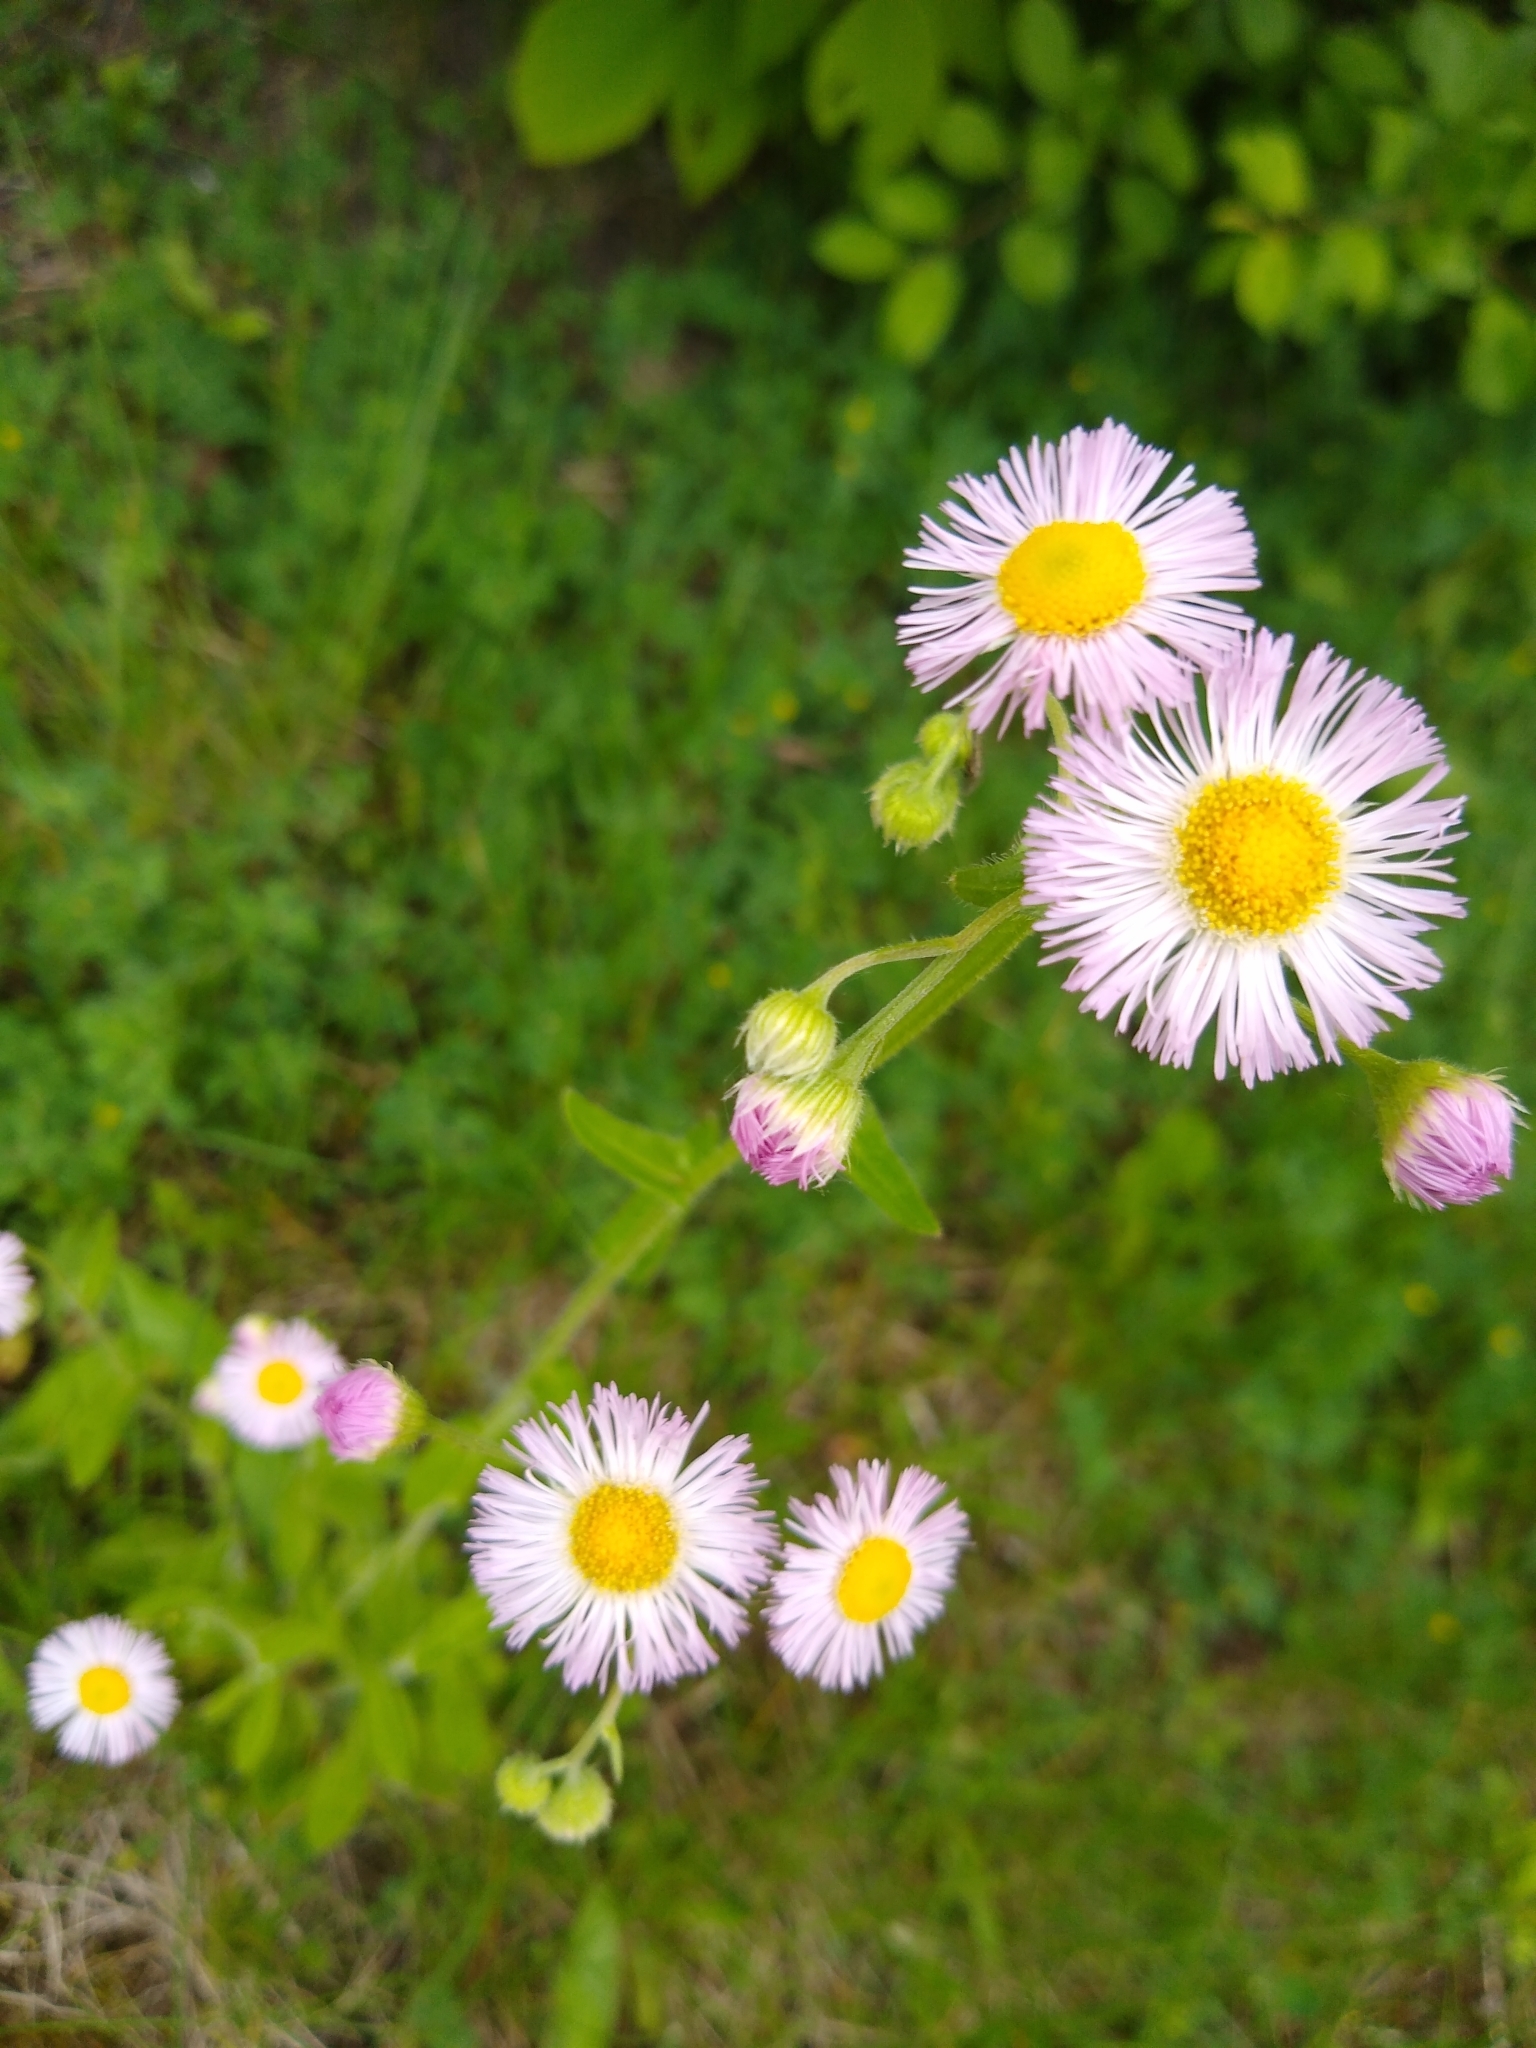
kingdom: Plantae
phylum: Tracheophyta
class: Magnoliopsida
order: Asterales
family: Asteraceae
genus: Erigeron
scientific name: Erigeron philadelphicus
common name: Robin's-plantain
